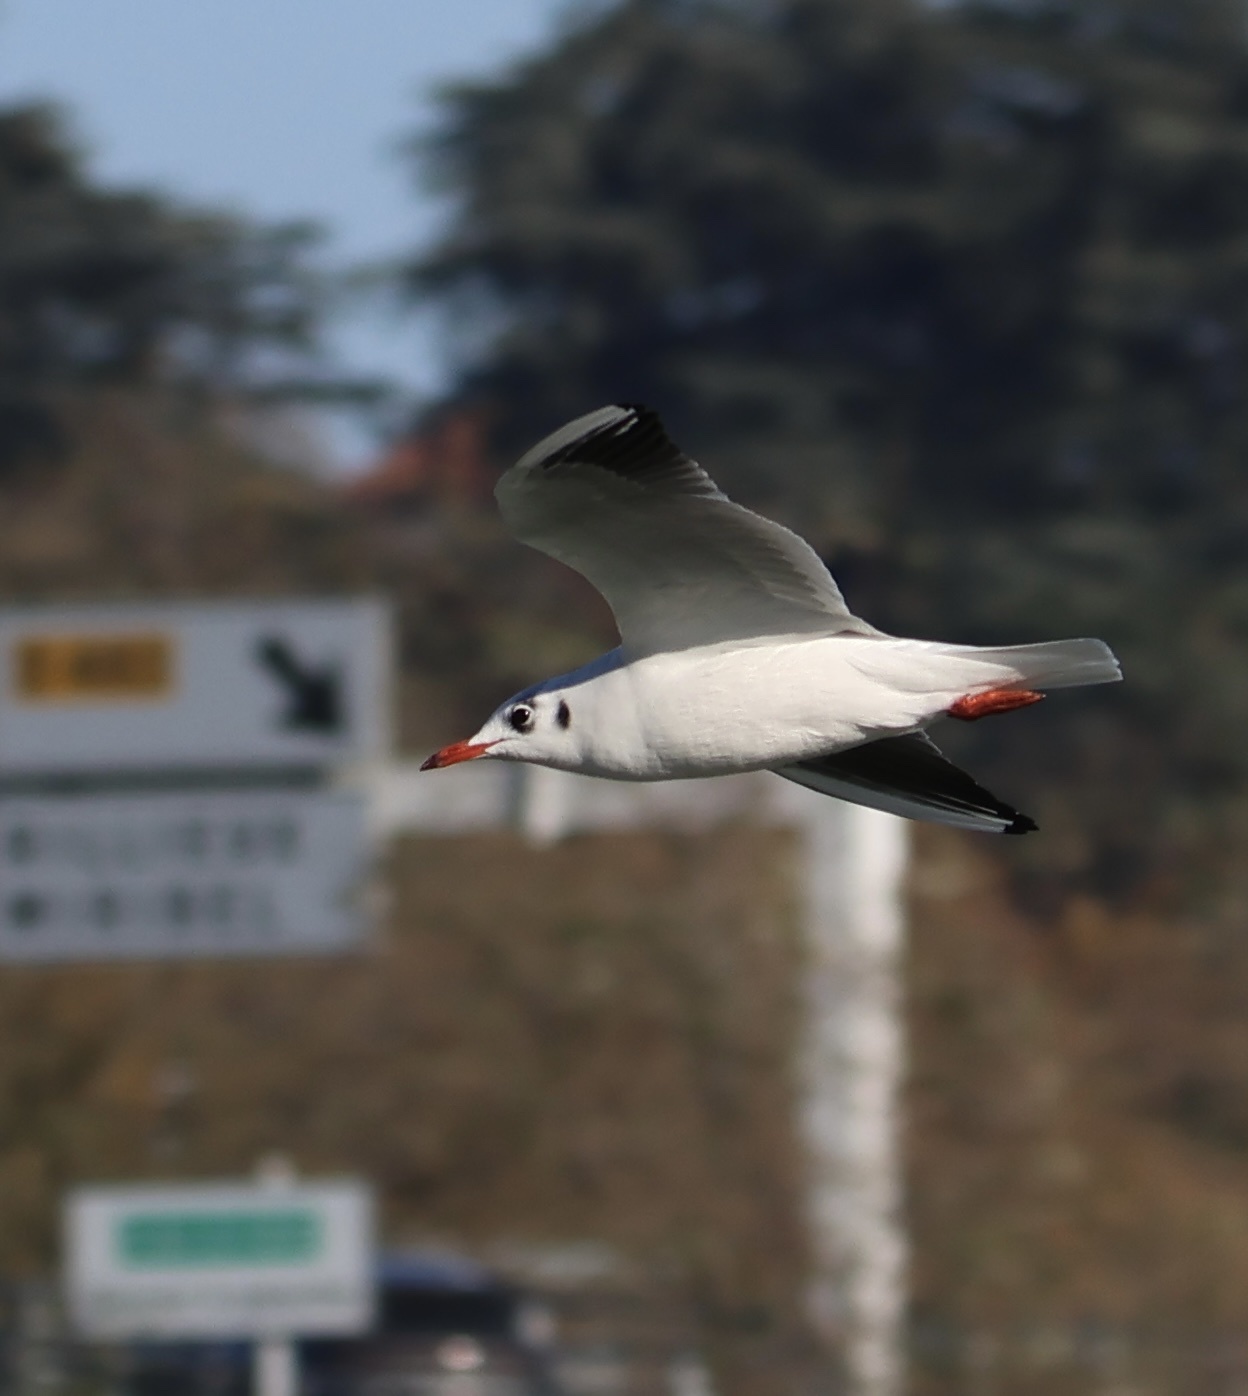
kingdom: Animalia
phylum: Chordata
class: Aves
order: Charadriiformes
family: Laridae
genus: Chroicocephalus
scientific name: Chroicocephalus ridibundus
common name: Black-headed gull
